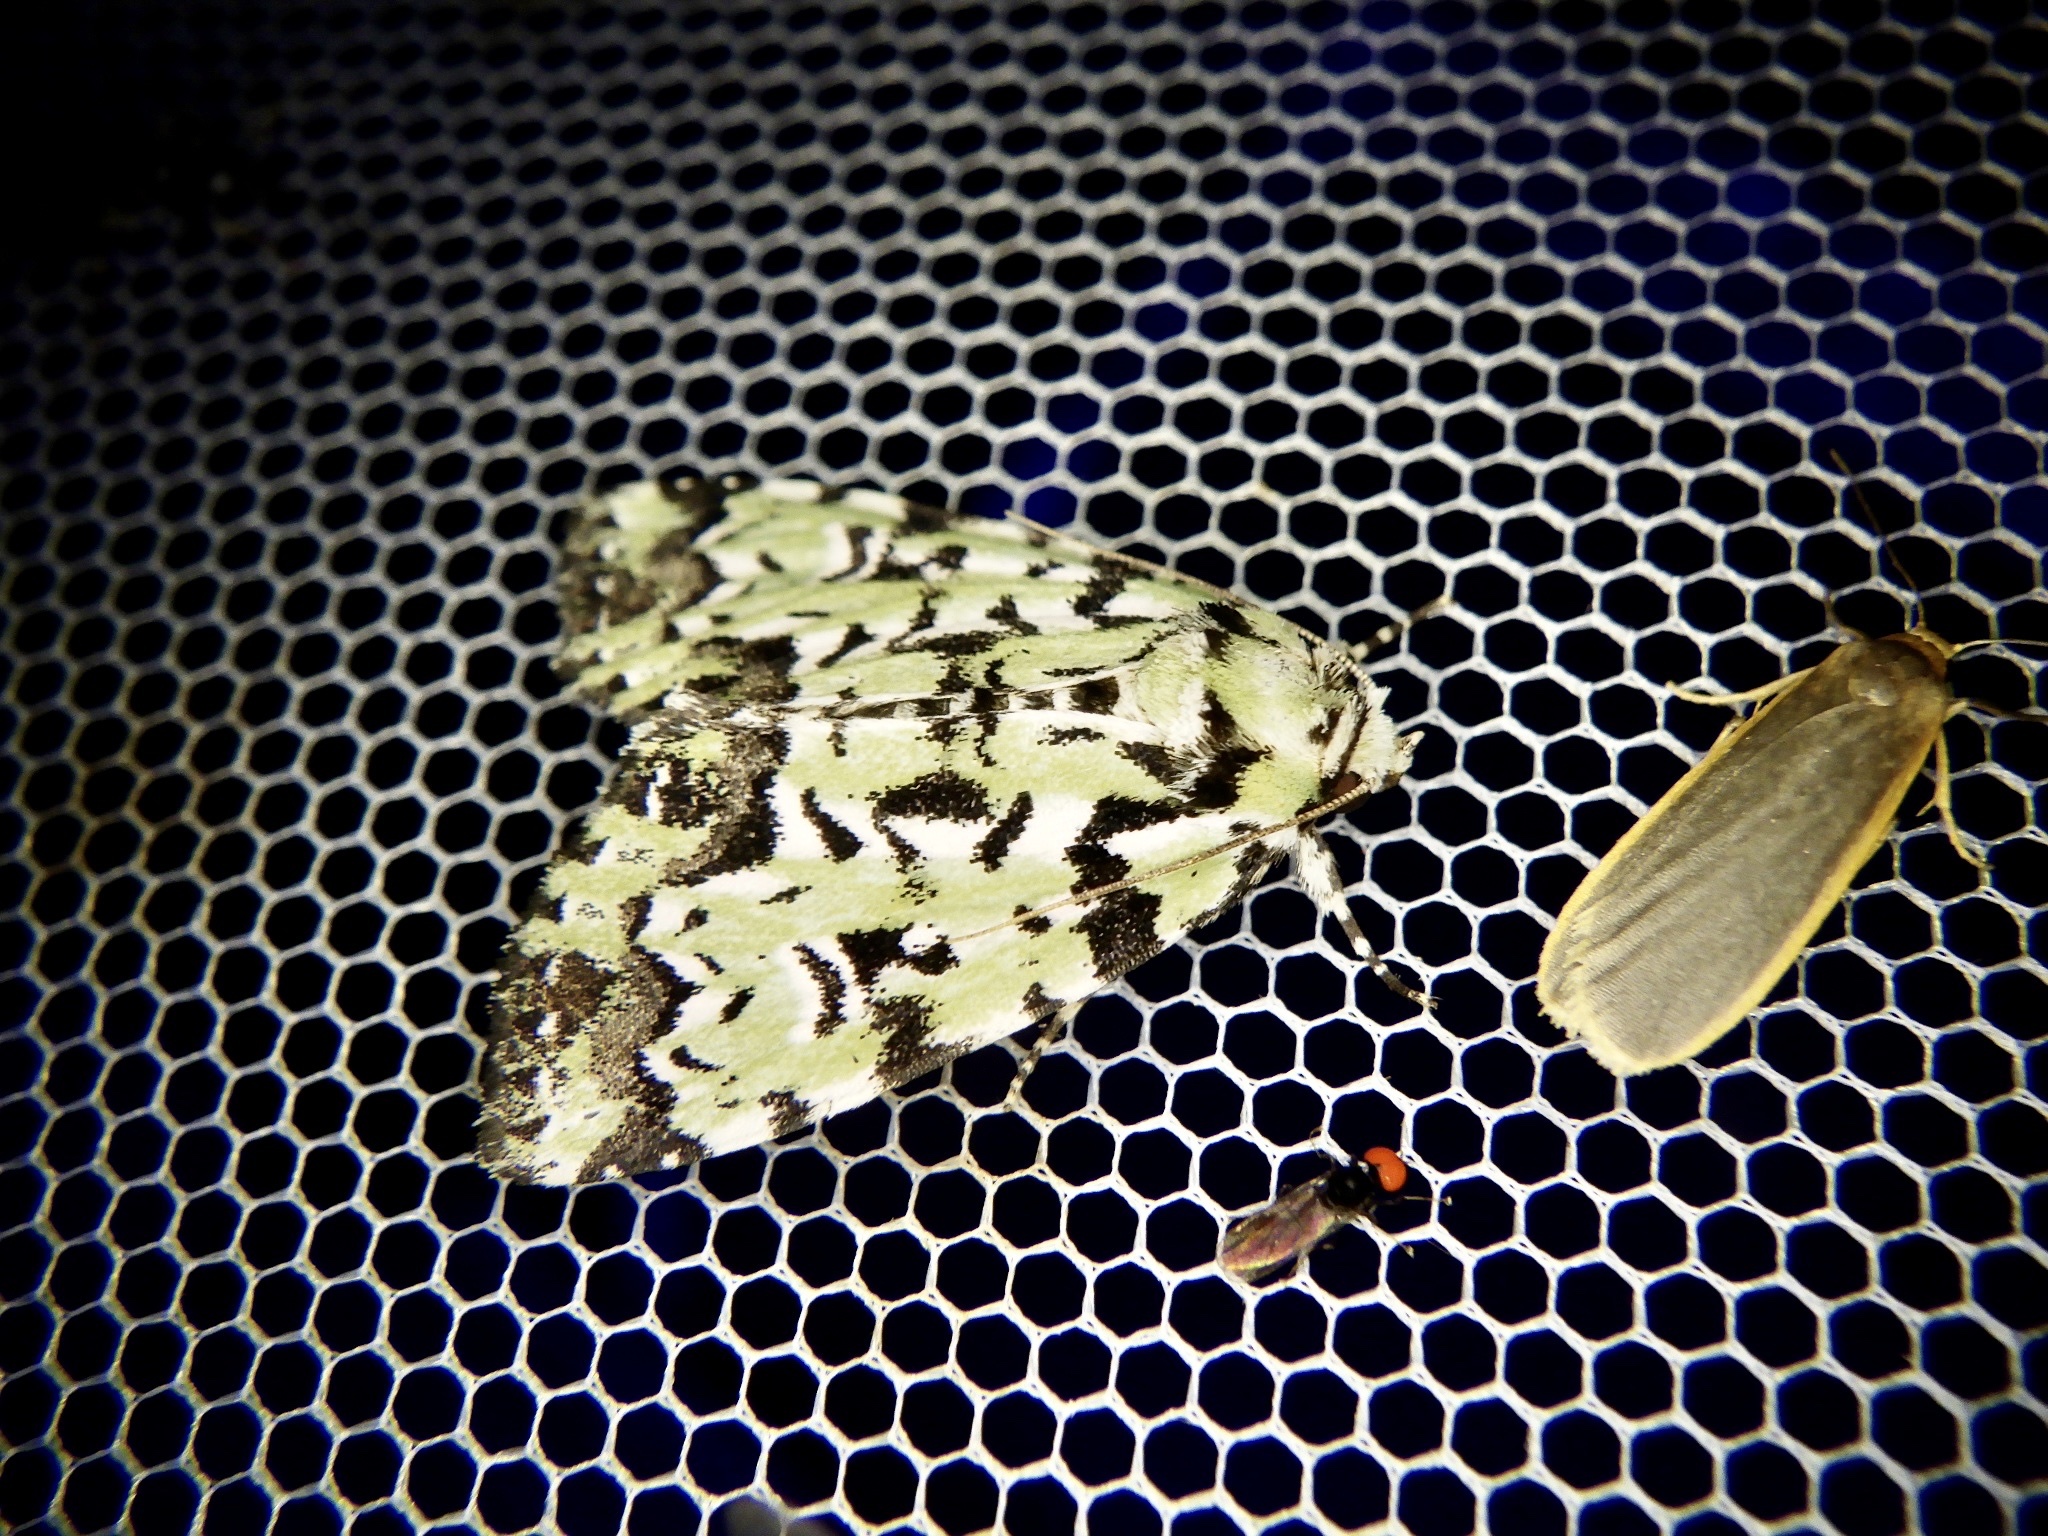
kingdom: Animalia
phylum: Arthropoda
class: Insecta
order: Lepidoptera
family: Noctuidae
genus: Moma
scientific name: Moma alpium
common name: Scarce merveille du jour
